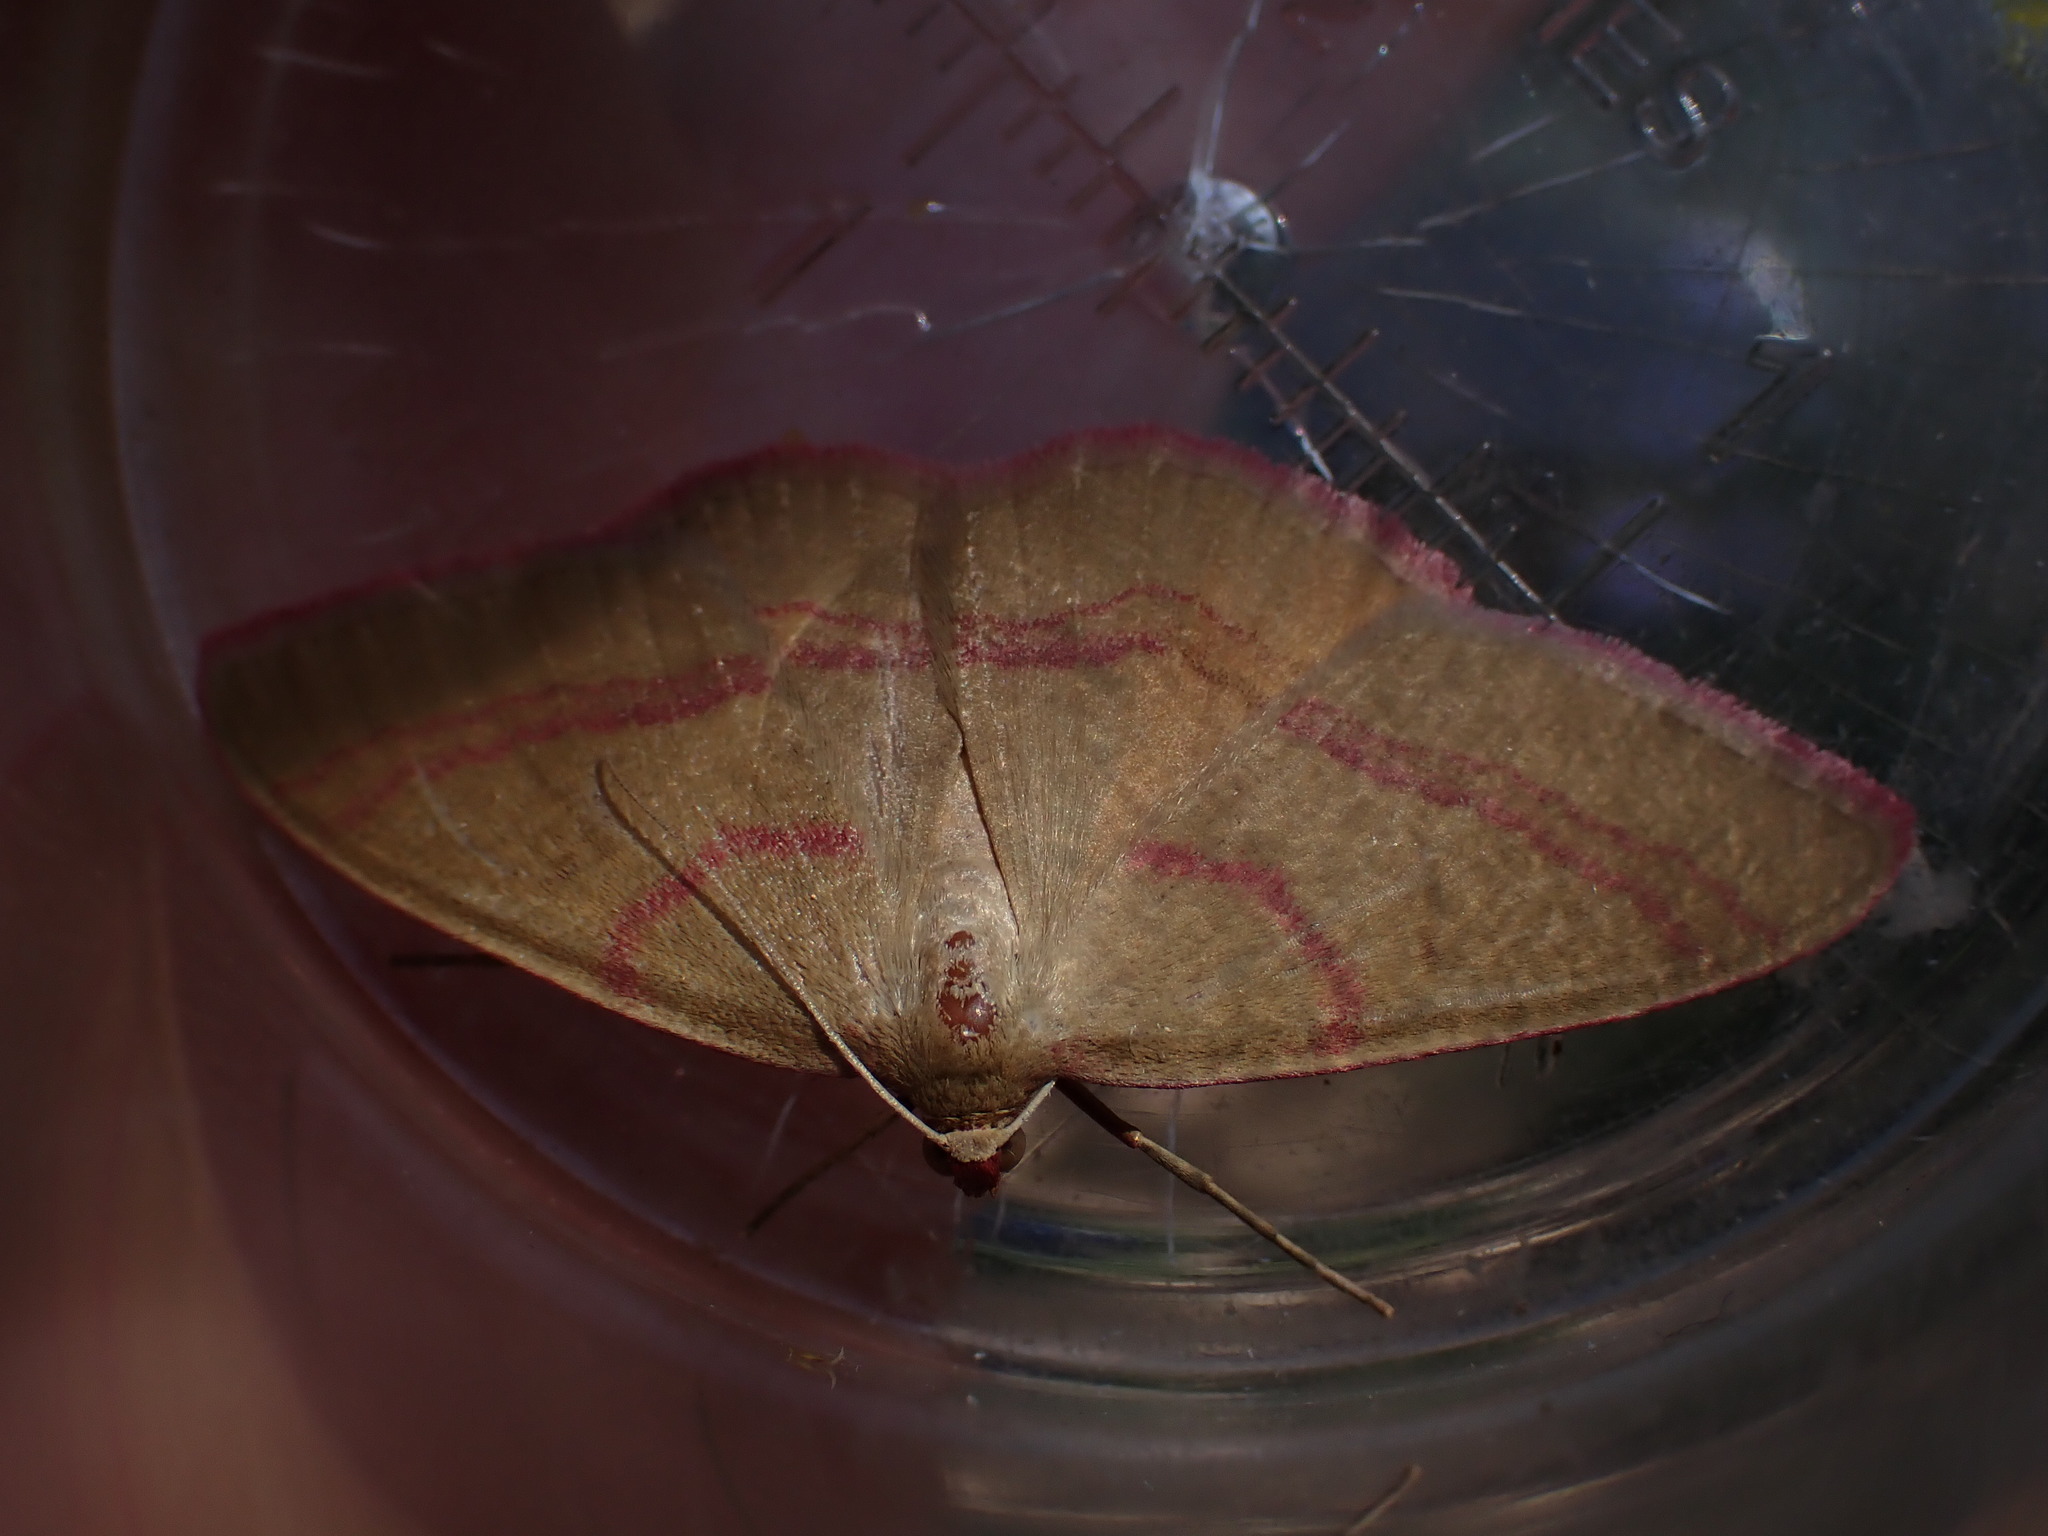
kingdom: Animalia
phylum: Arthropoda
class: Insecta
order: Lepidoptera
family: Geometridae
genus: Rhodostrophia
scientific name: Rhodostrophia calabra
